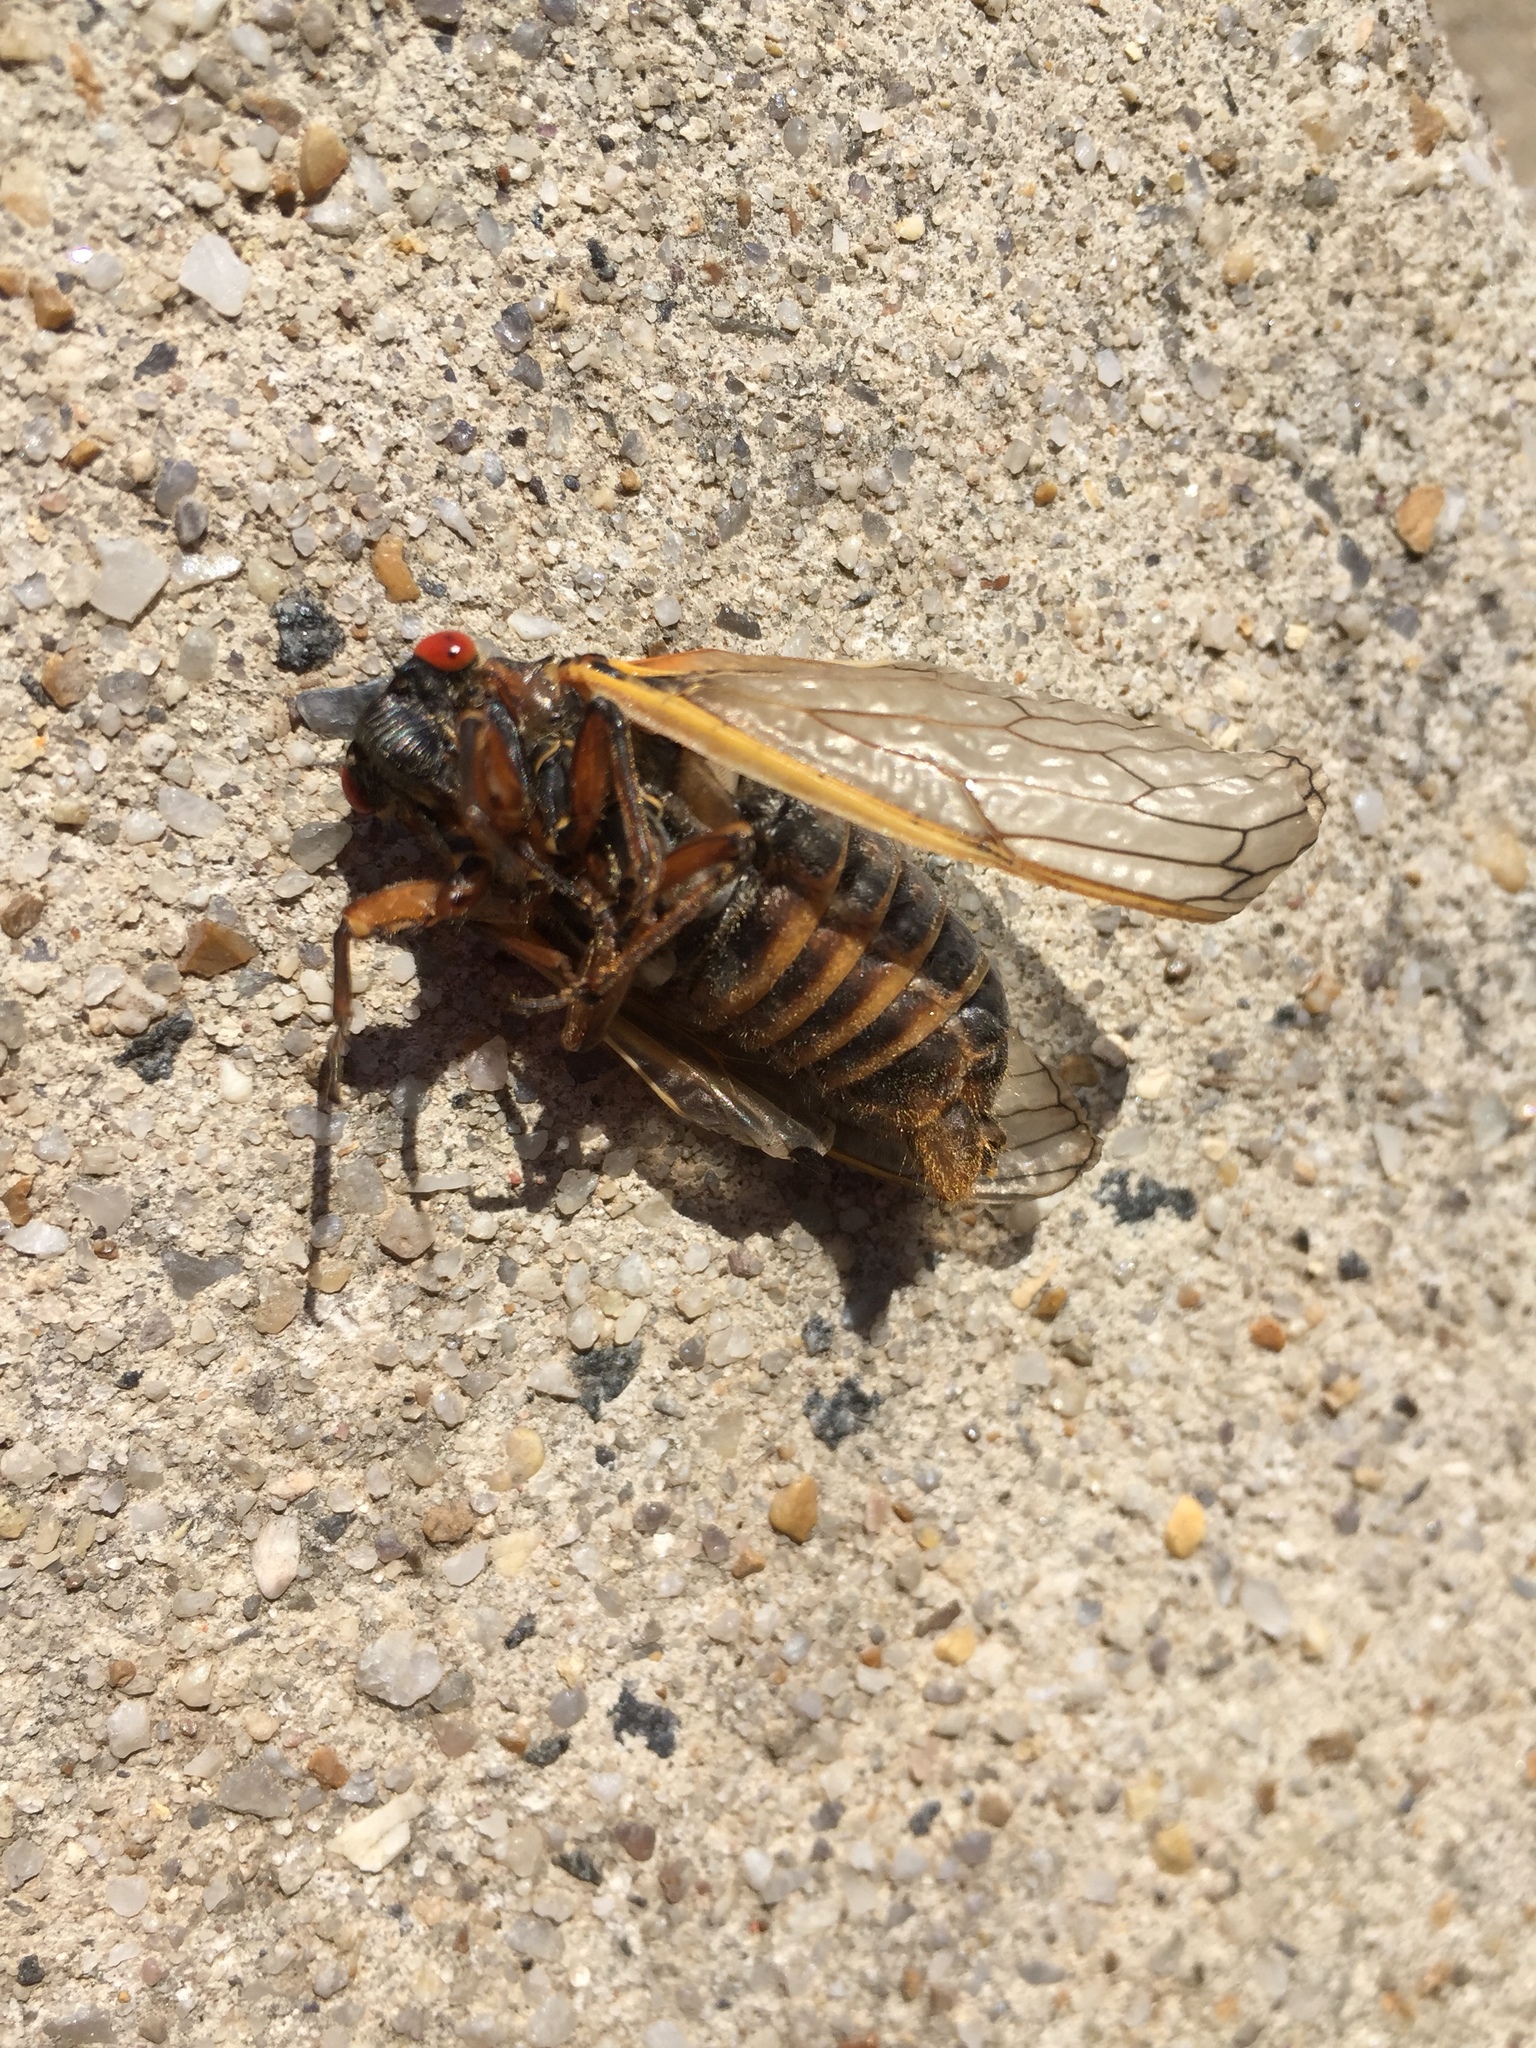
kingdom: Animalia
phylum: Arthropoda
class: Insecta
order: Hemiptera
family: Cicadidae
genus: Magicicada
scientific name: Magicicada septendecim
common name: Periodical cicada
